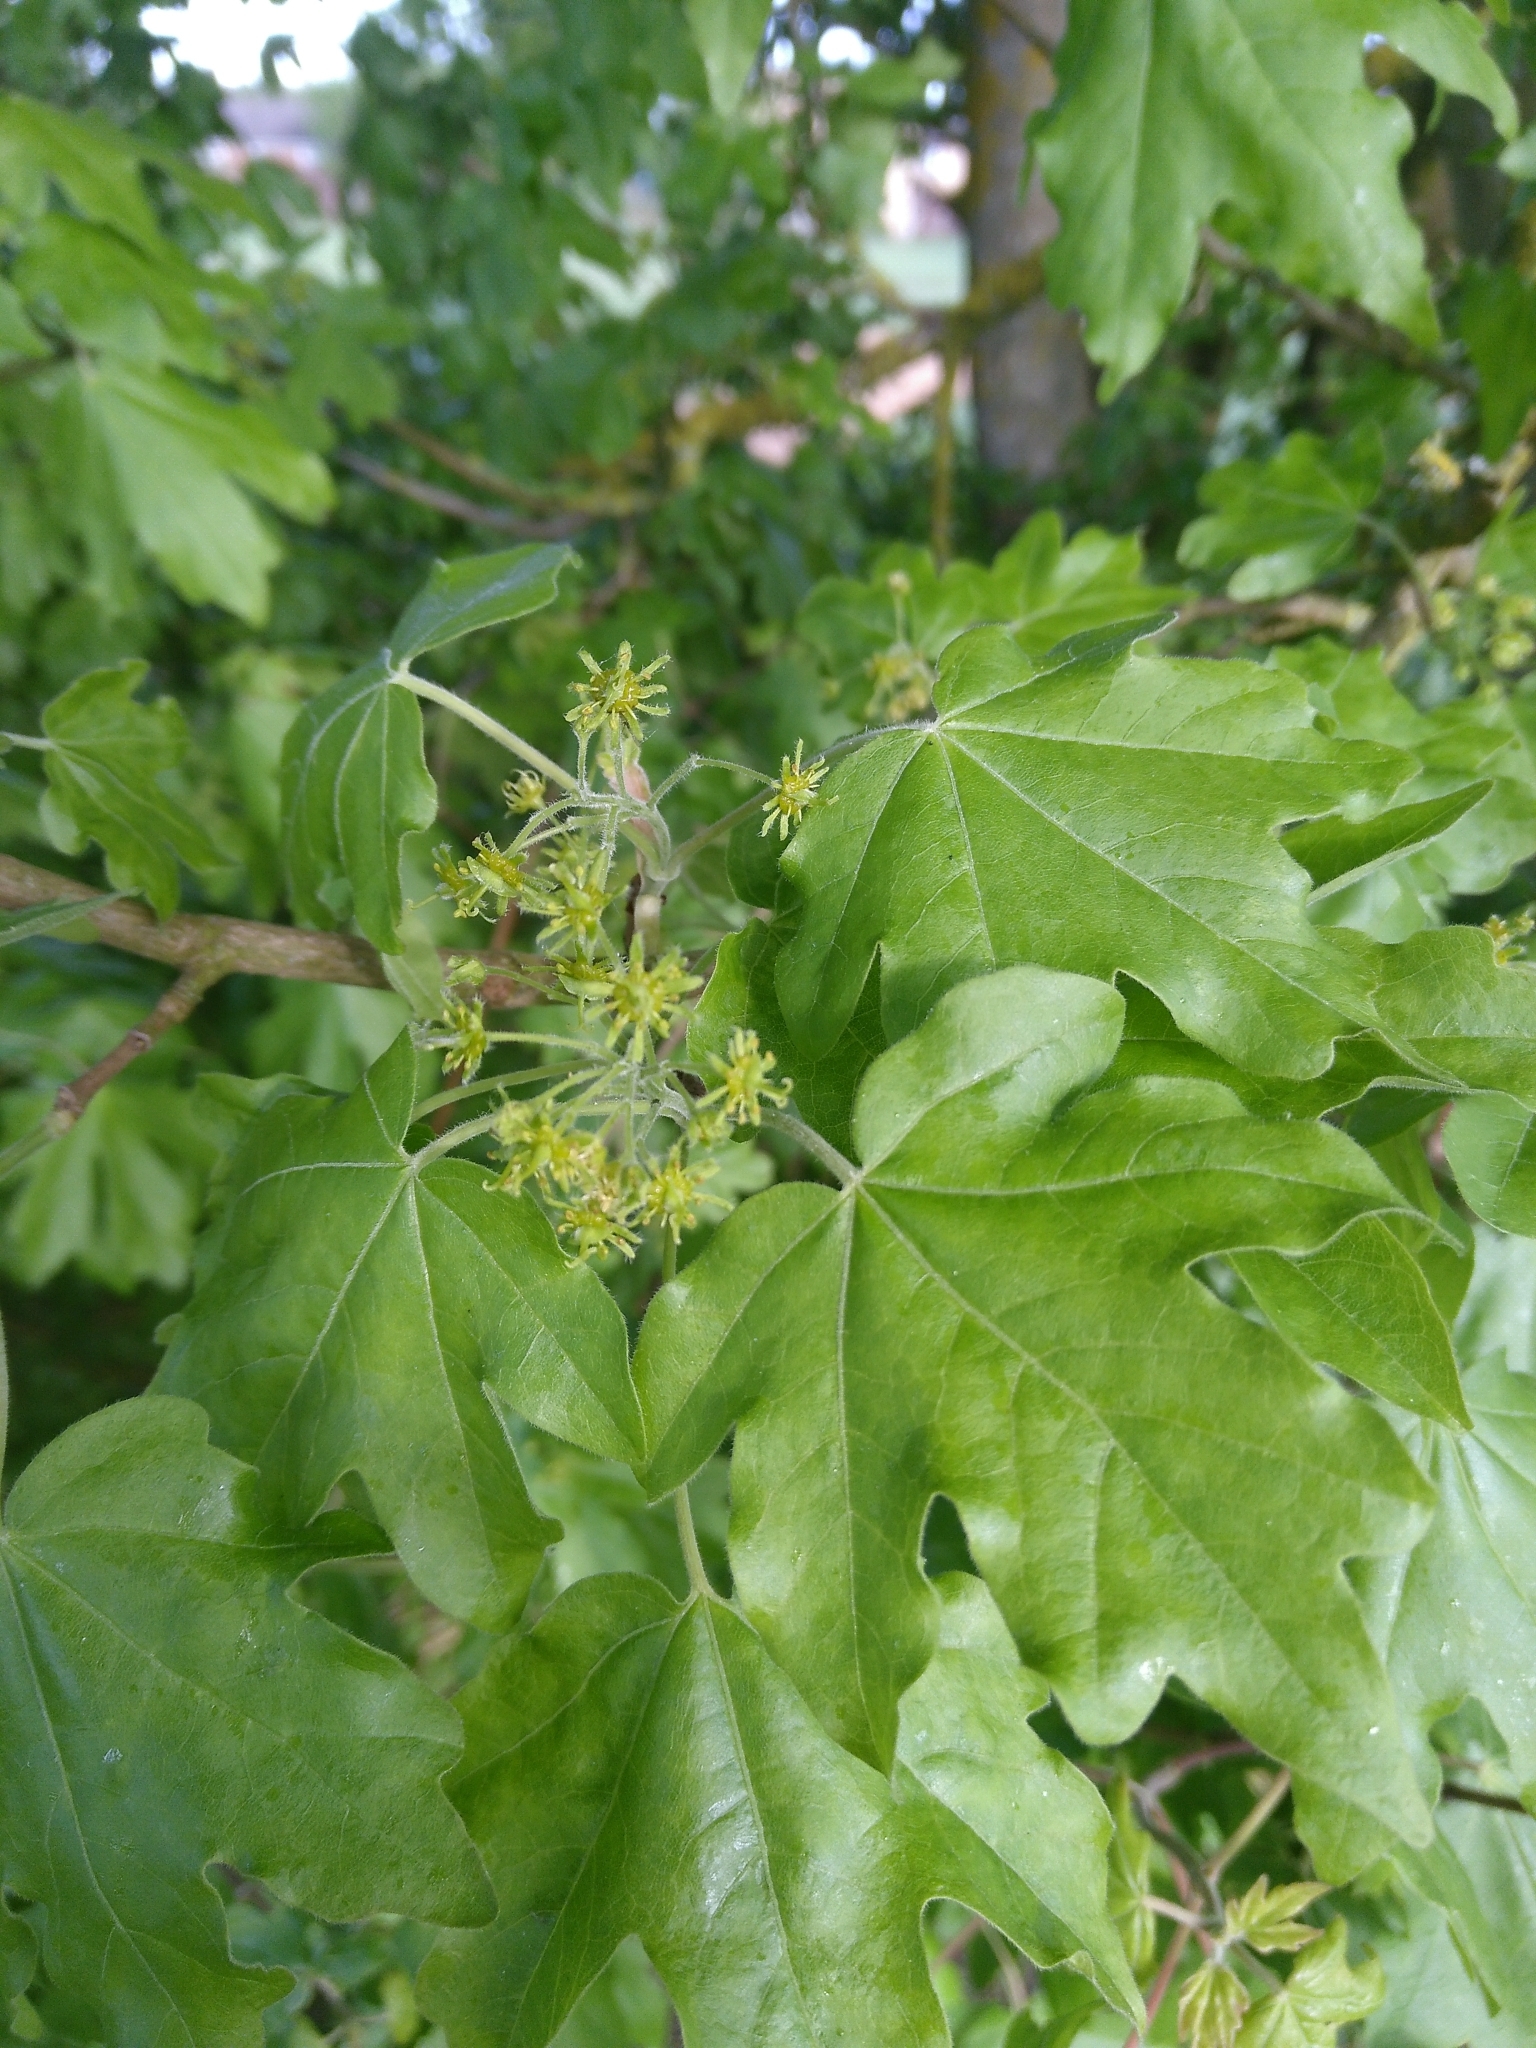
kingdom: Plantae
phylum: Tracheophyta
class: Magnoliopsida
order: Sapindales
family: Sapindaceae
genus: Acer
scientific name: Acer campestre
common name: Field maple
